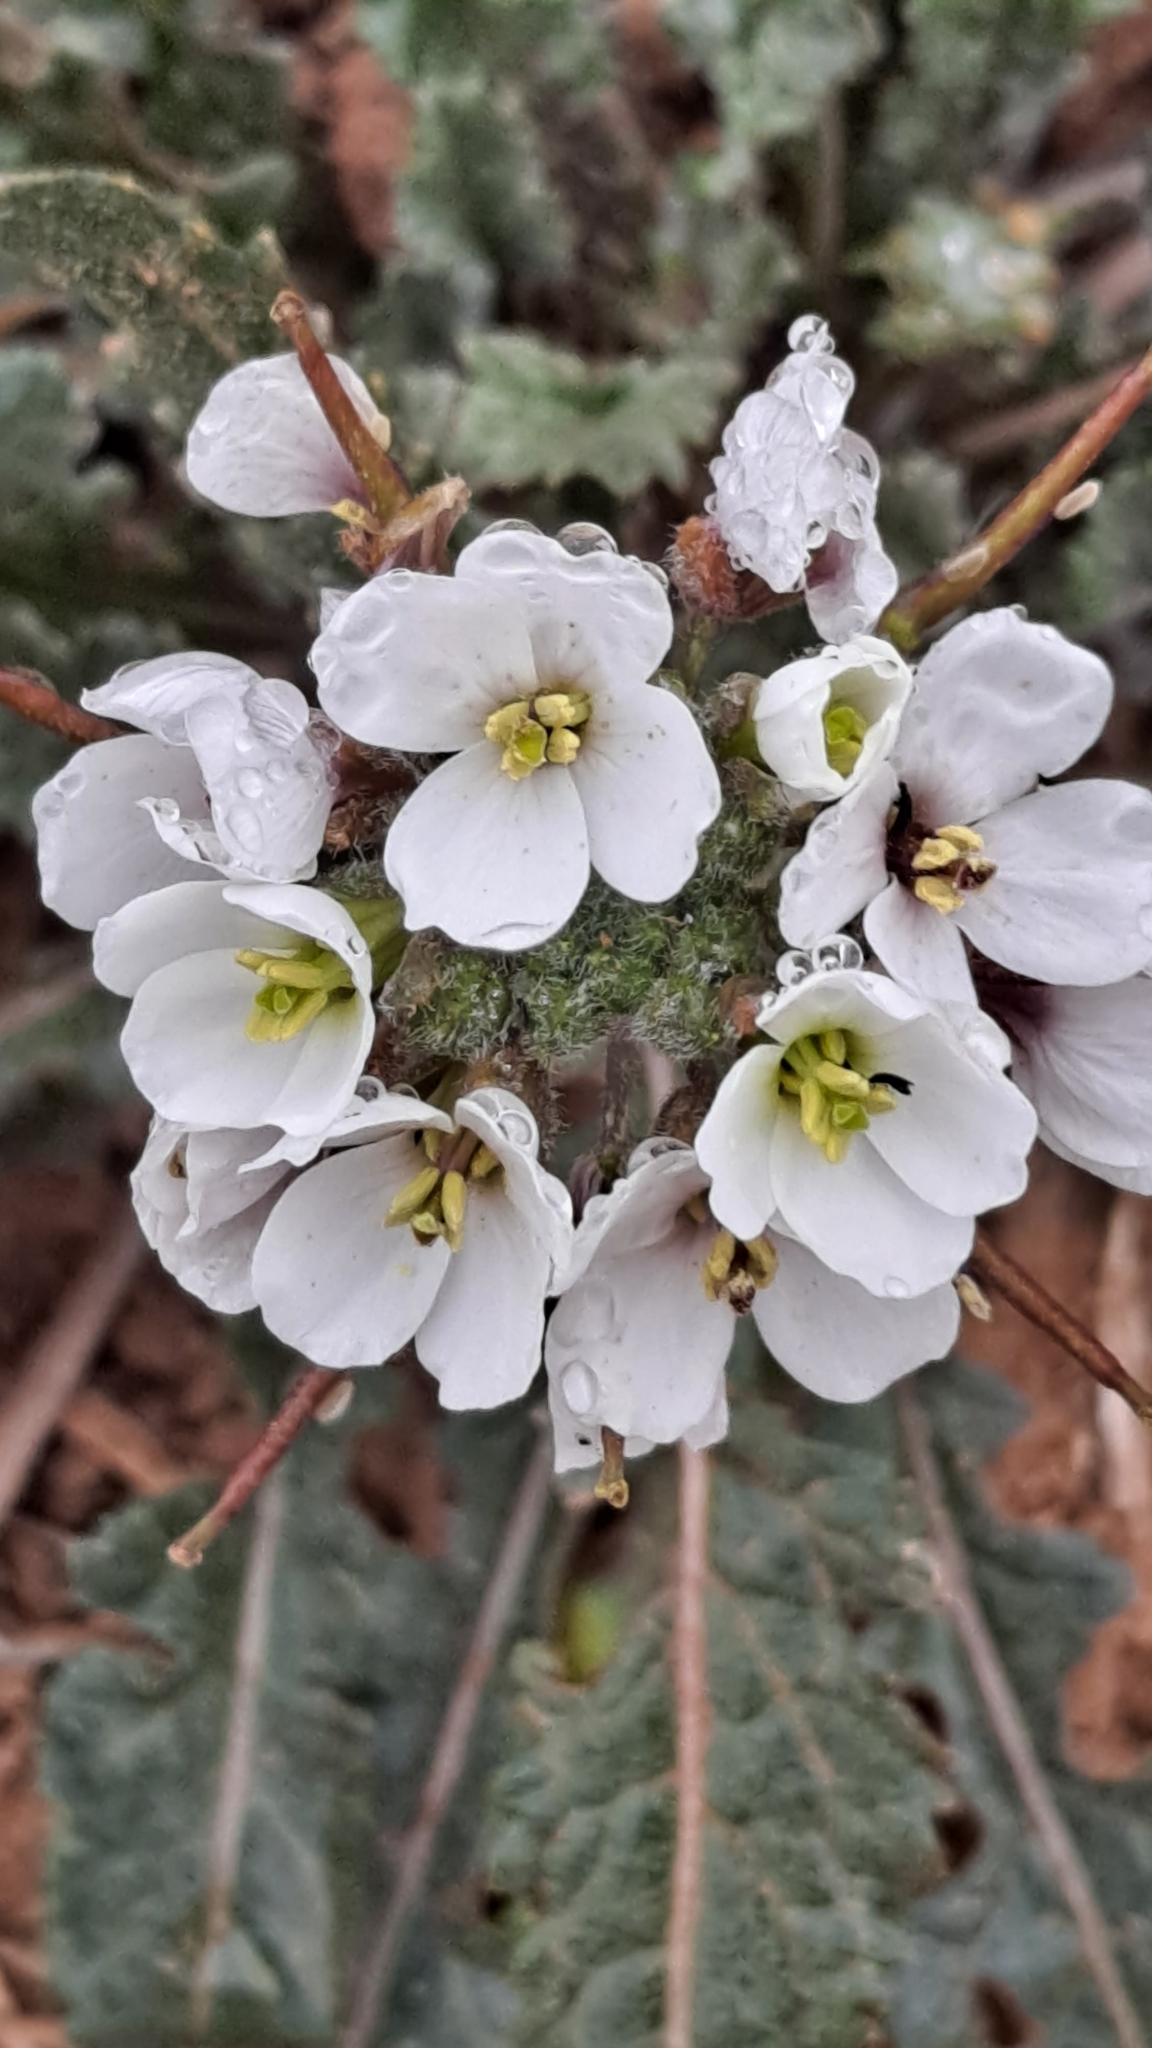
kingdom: Plantae
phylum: Tracheophyta
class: Magnoliopsida
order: Brassicales
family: Brassicaceae
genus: Diplotaxis
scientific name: Diplotaxis erucoides
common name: White rocket
